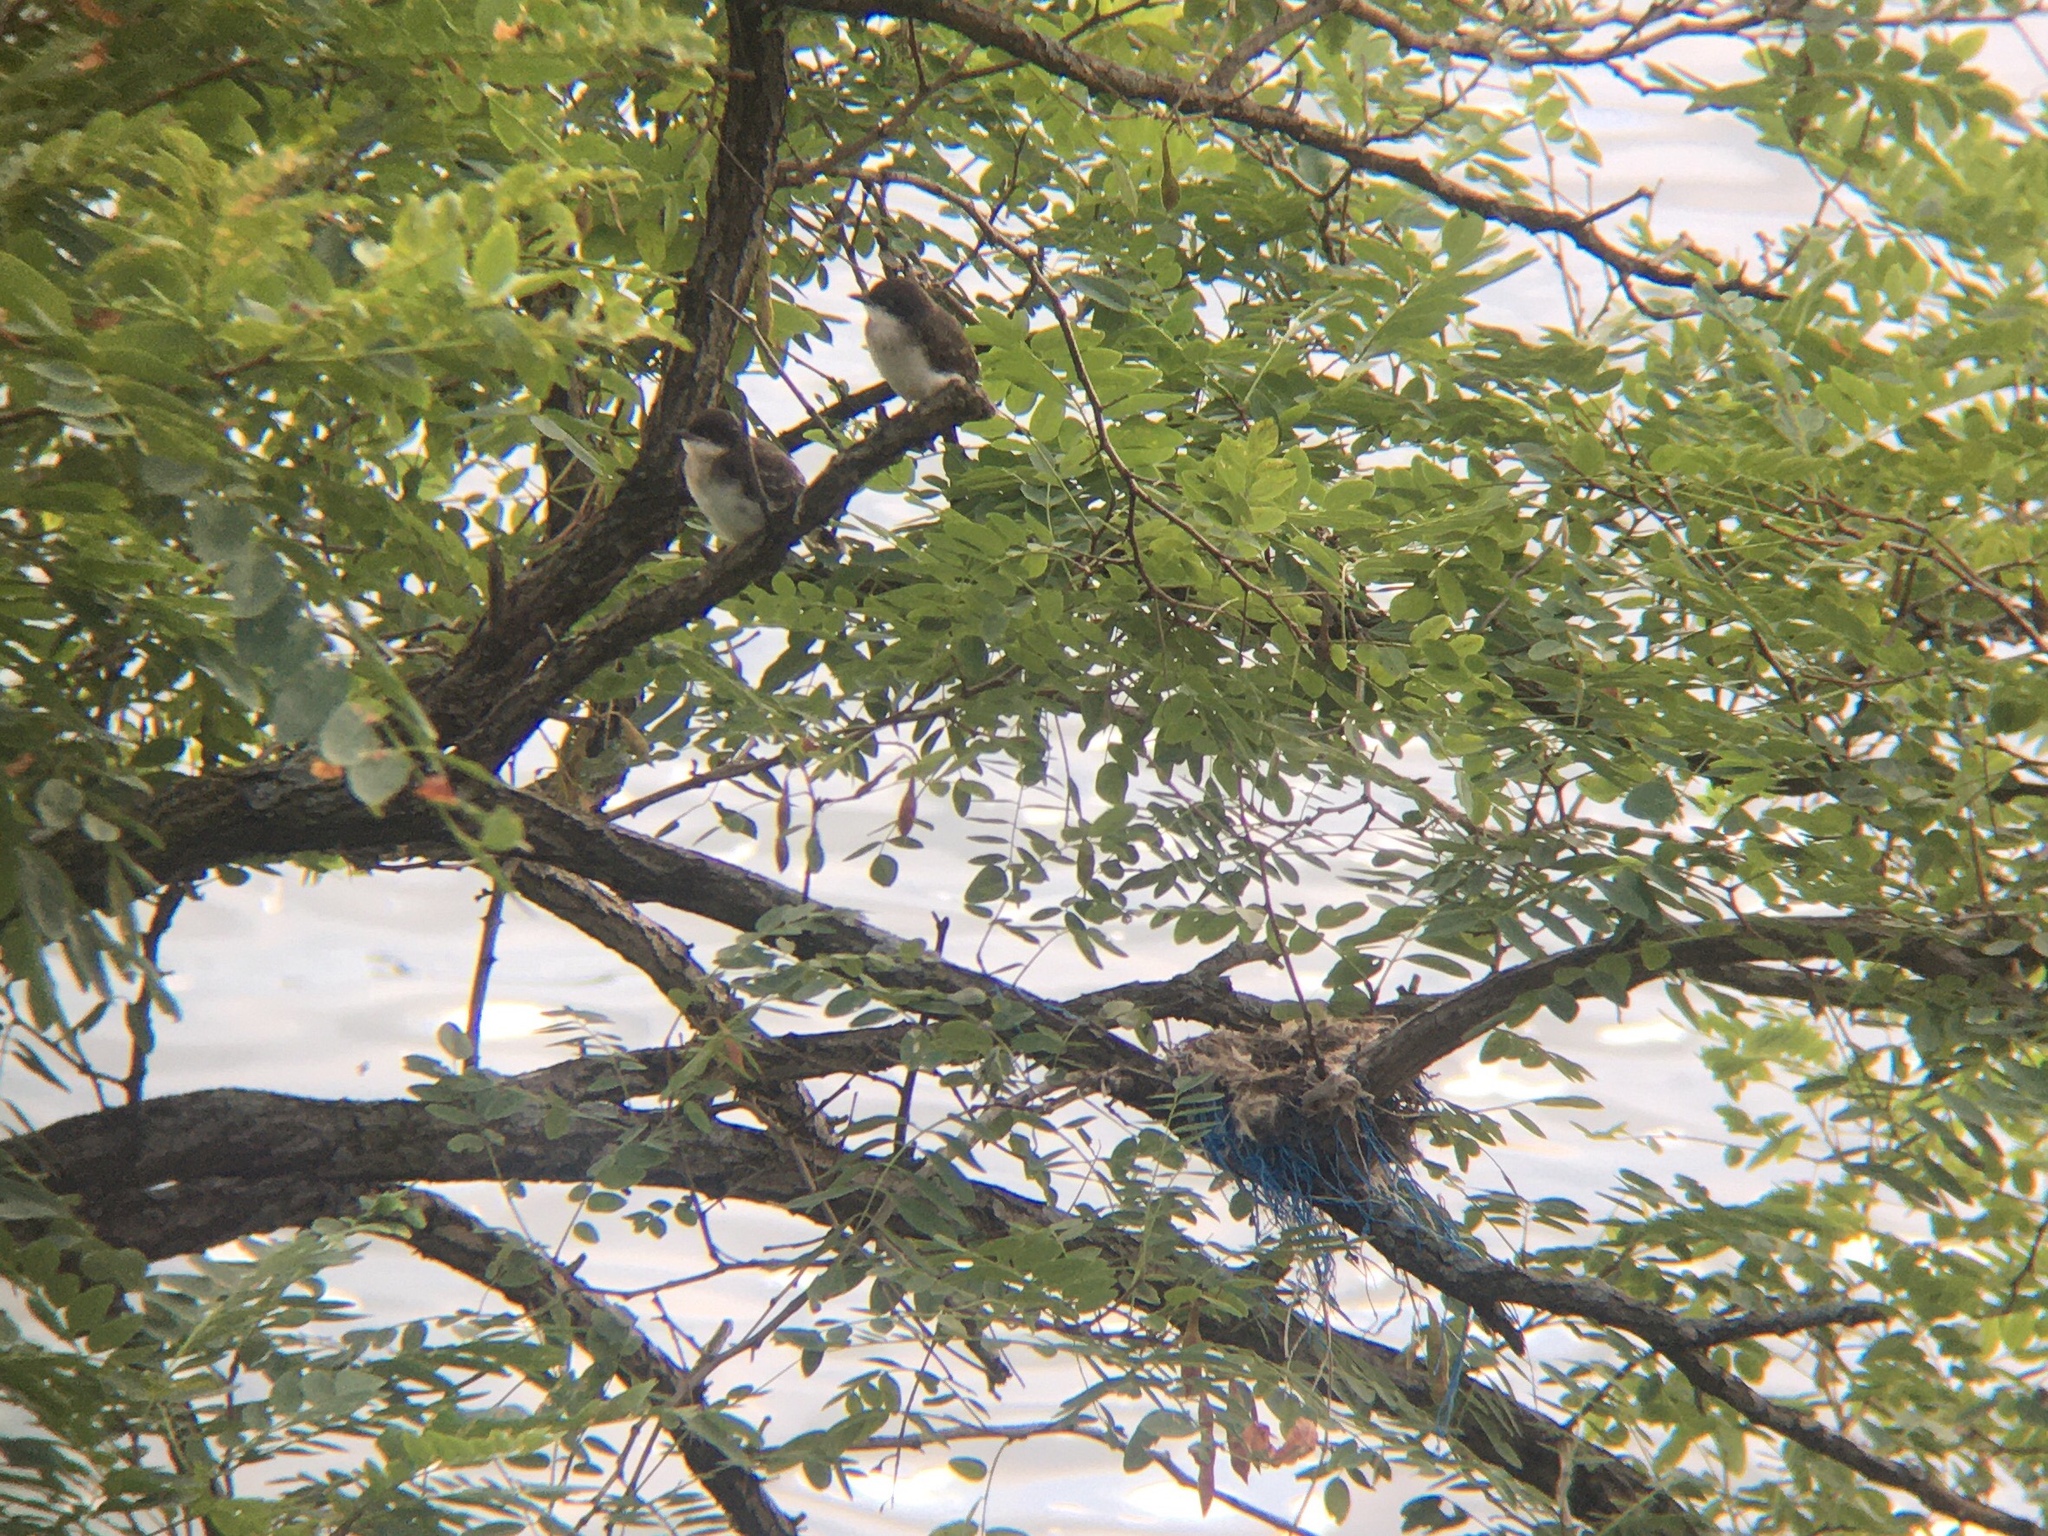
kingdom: Animalia
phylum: Chordata
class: Aves
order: Passeriformes
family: Tyrannidae
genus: Tyrannus
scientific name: Tyrannus tyrannus
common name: Eastern kingbird
